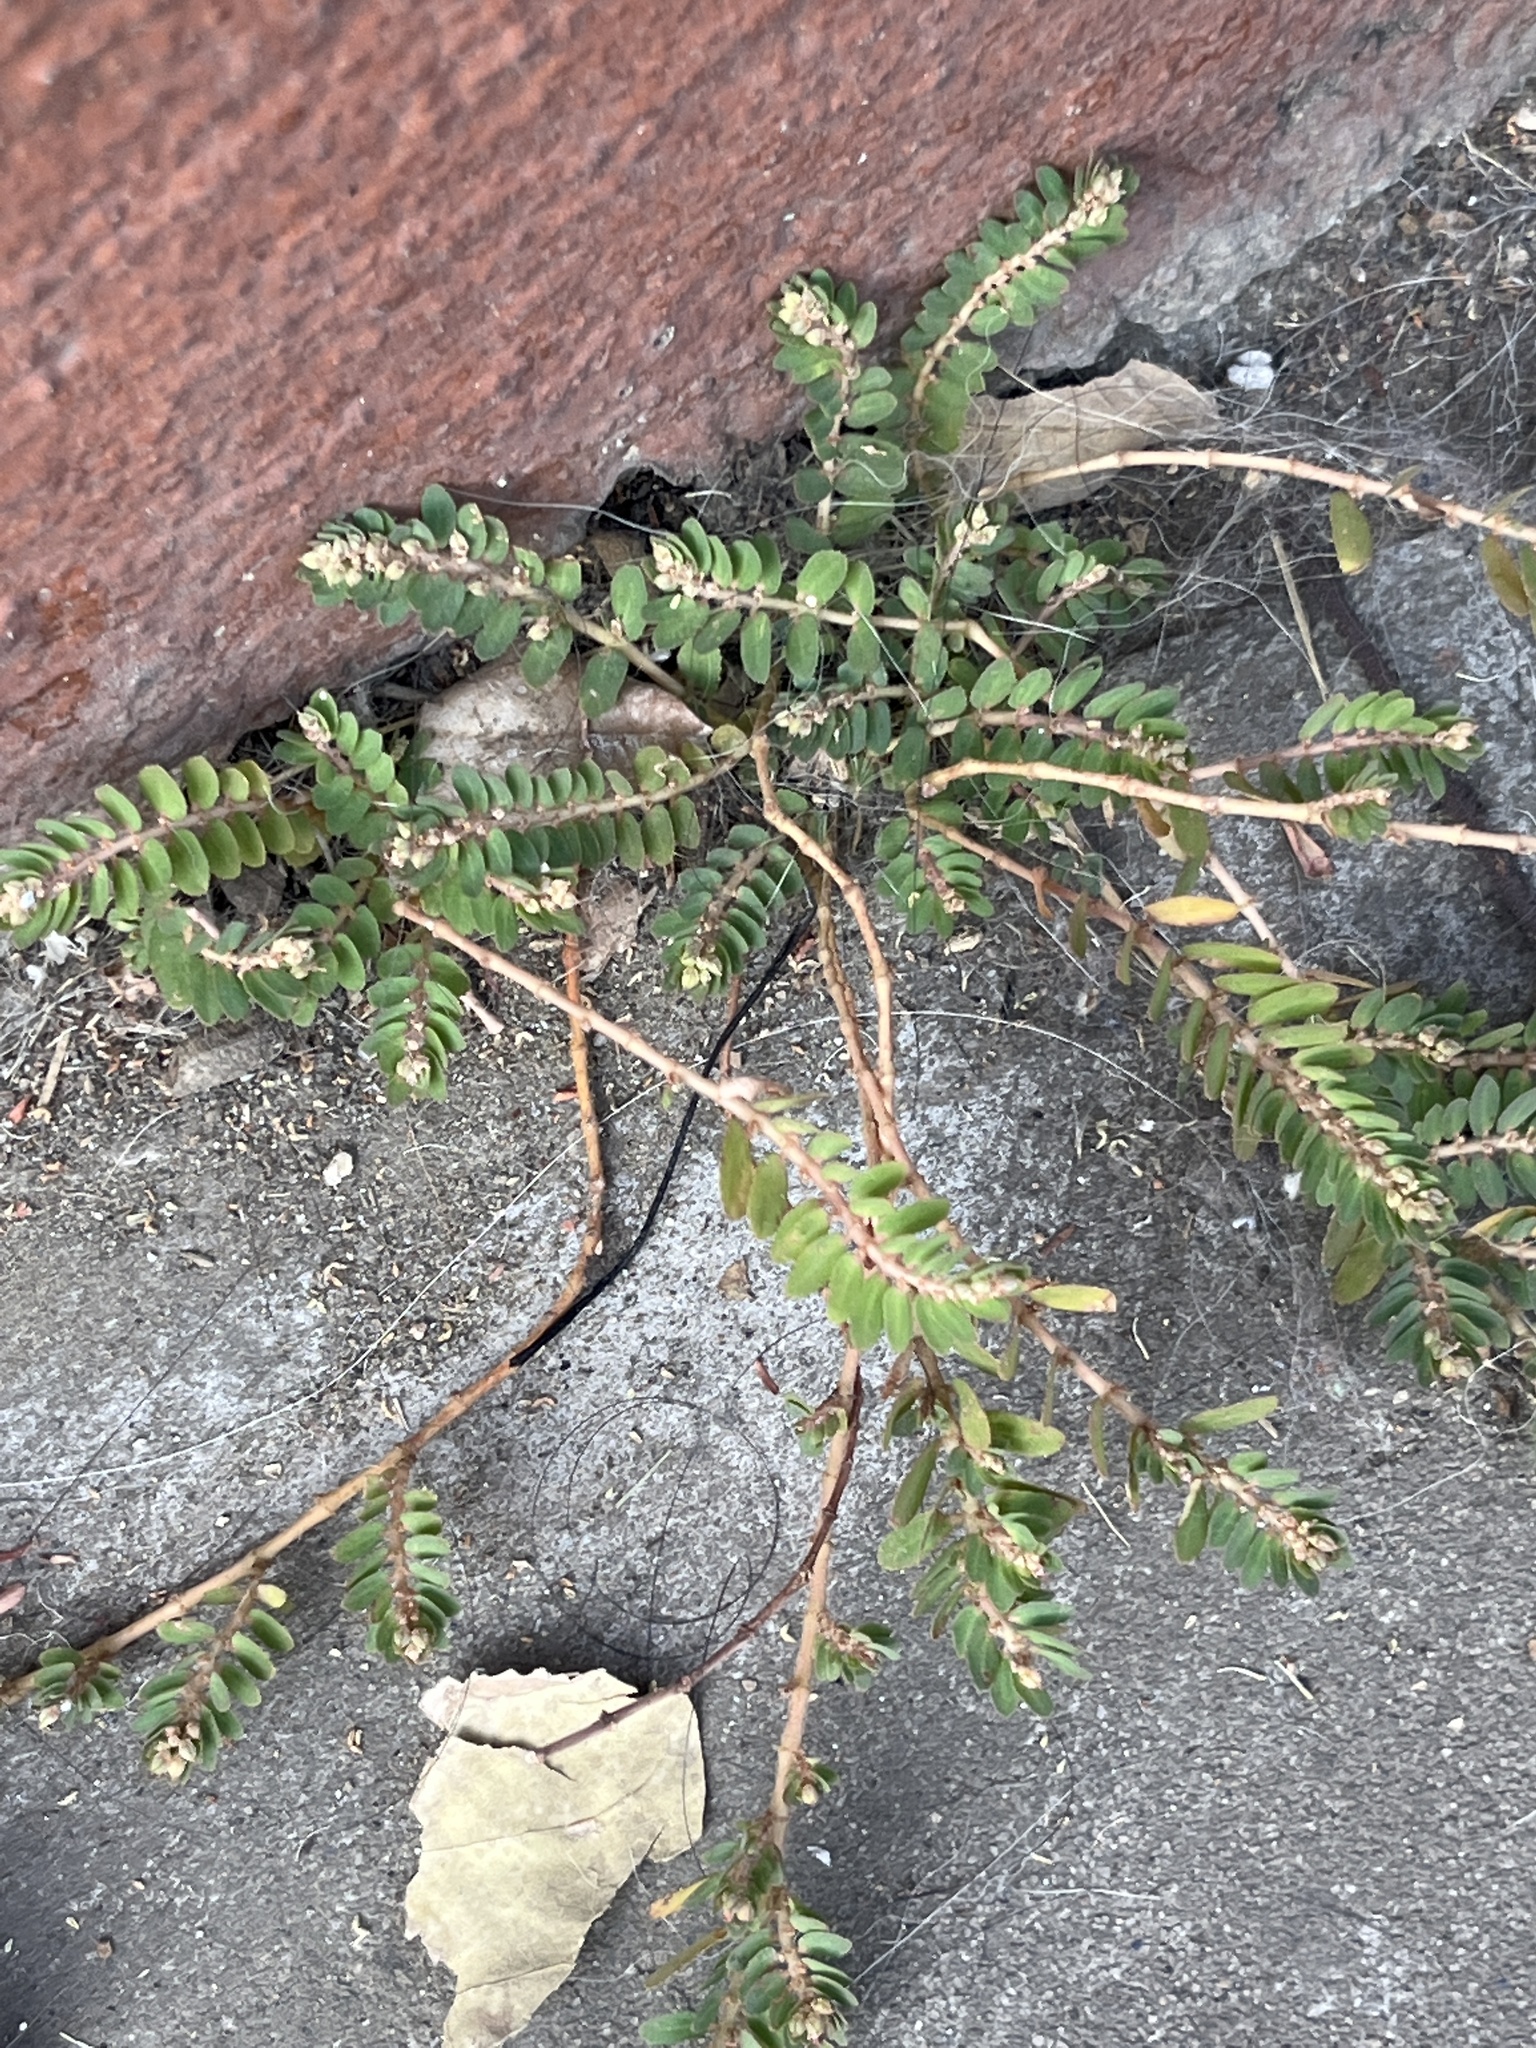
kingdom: Plantae
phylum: Tracheophyta
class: Magnoliopsida
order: Malpighiales
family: Euphorbiaceae
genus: Euphorbia
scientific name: Euphorbia thymifolia
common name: Gulf sandmat
